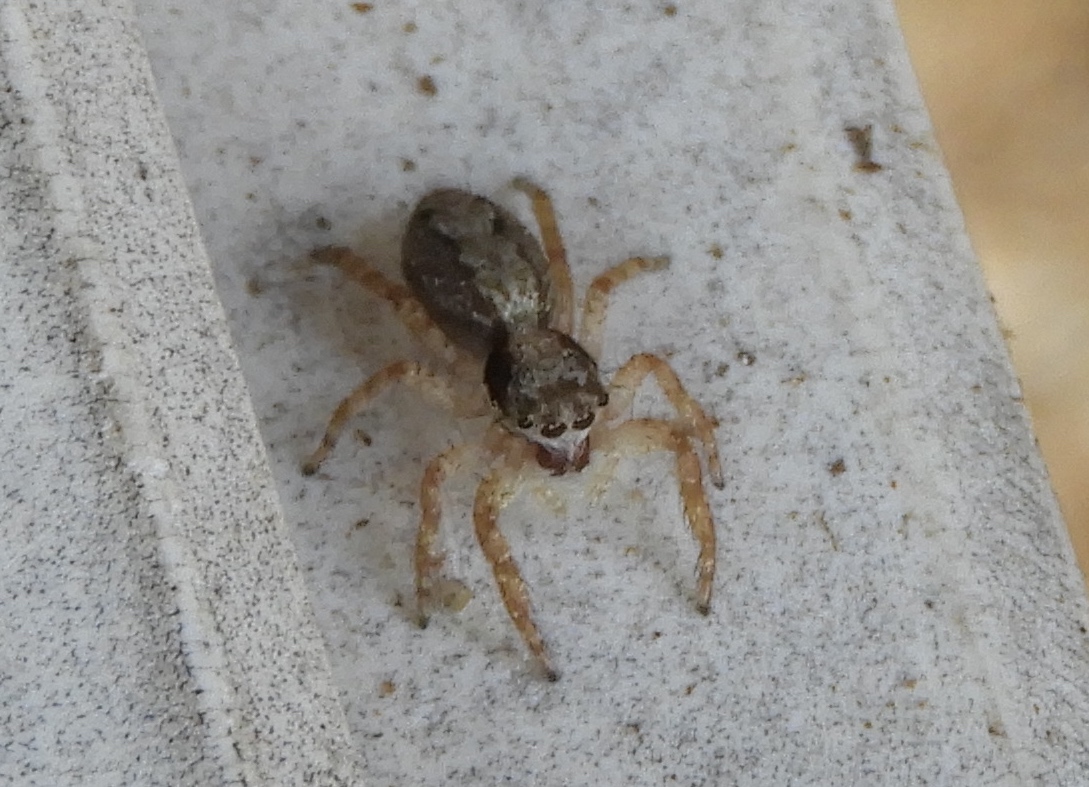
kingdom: Animalia
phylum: Arthropoda
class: Arachnida
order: Araneae
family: Salticidae
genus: Balmaceda
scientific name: Balmaceda
